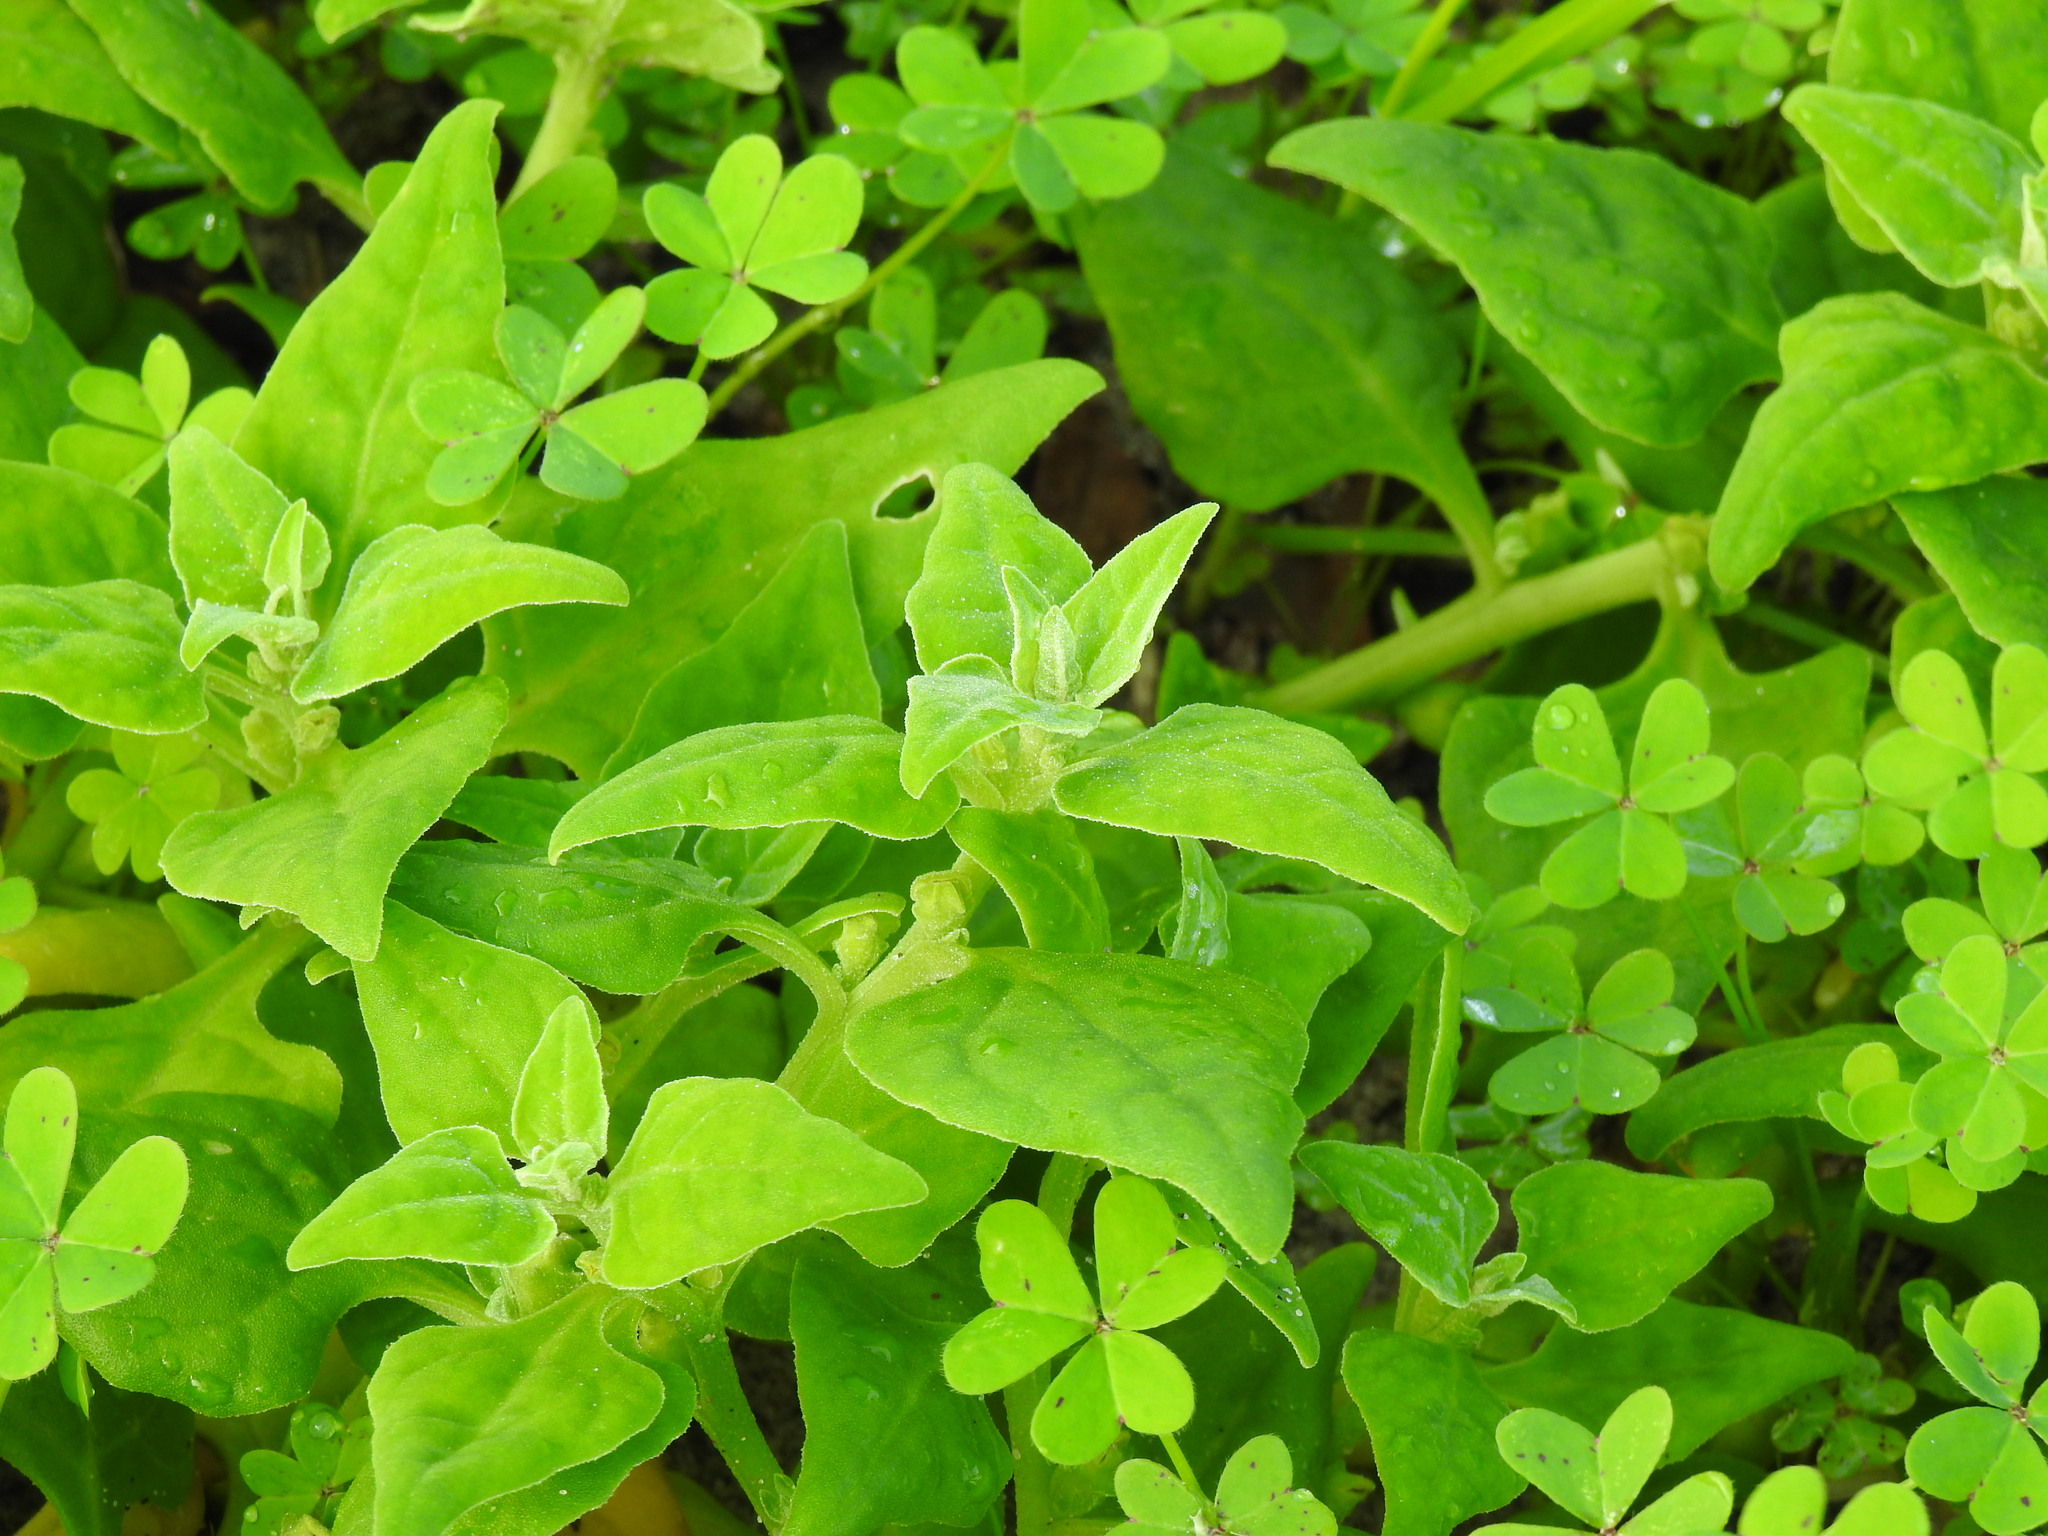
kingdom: Plantae
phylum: Tracheophyta
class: Magnoliopsida
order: Caryophyllales
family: Aizoaceae
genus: Tetragonia
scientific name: Tetragonia tetragonoides
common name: New zealand-spinach
